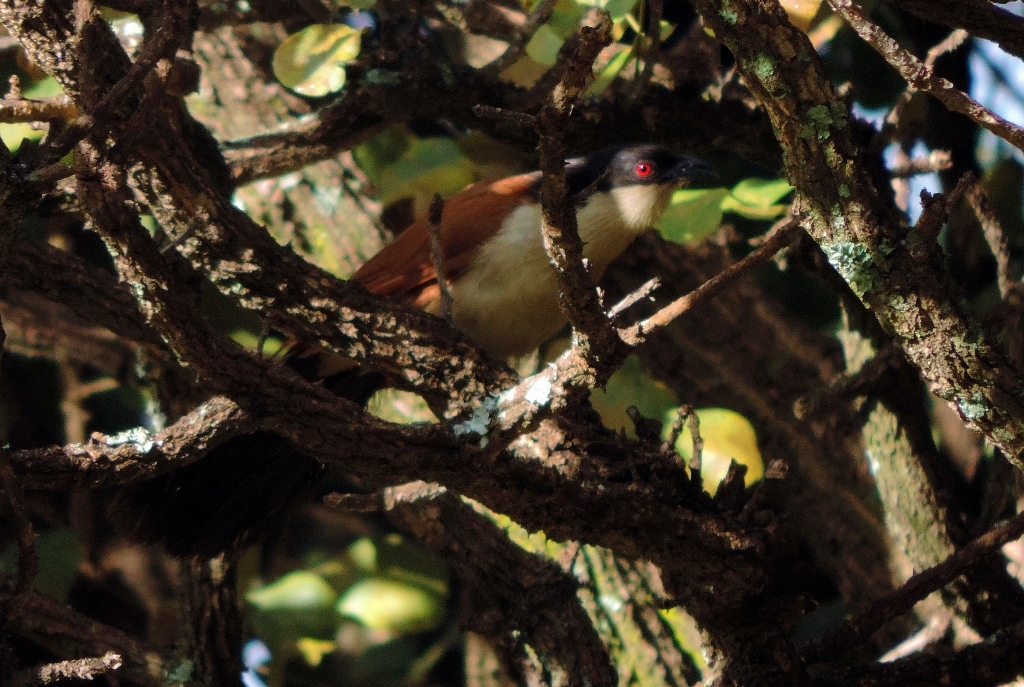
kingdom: Animalia
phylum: Chordata
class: Aves
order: Cuculiformes
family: Cuculidae
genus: Centropus
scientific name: Centropus senegalensis
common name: Senegal coucal
